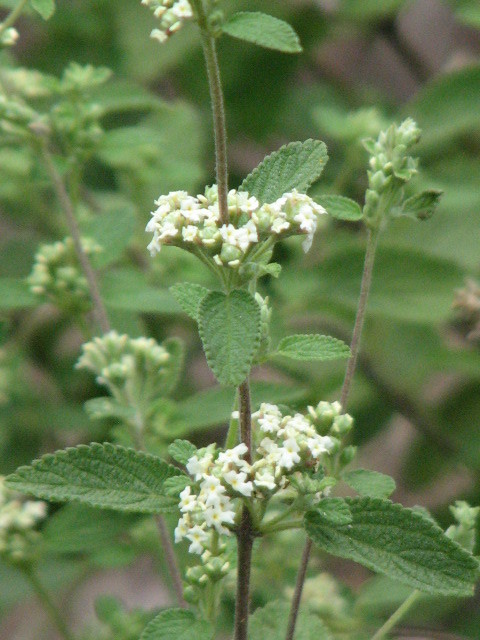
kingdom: Plantae
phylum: Tracheophyta
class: Magnoliopsida
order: Lamiales
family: Verbenaceae
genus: Lippia
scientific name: Lippia origanoides
